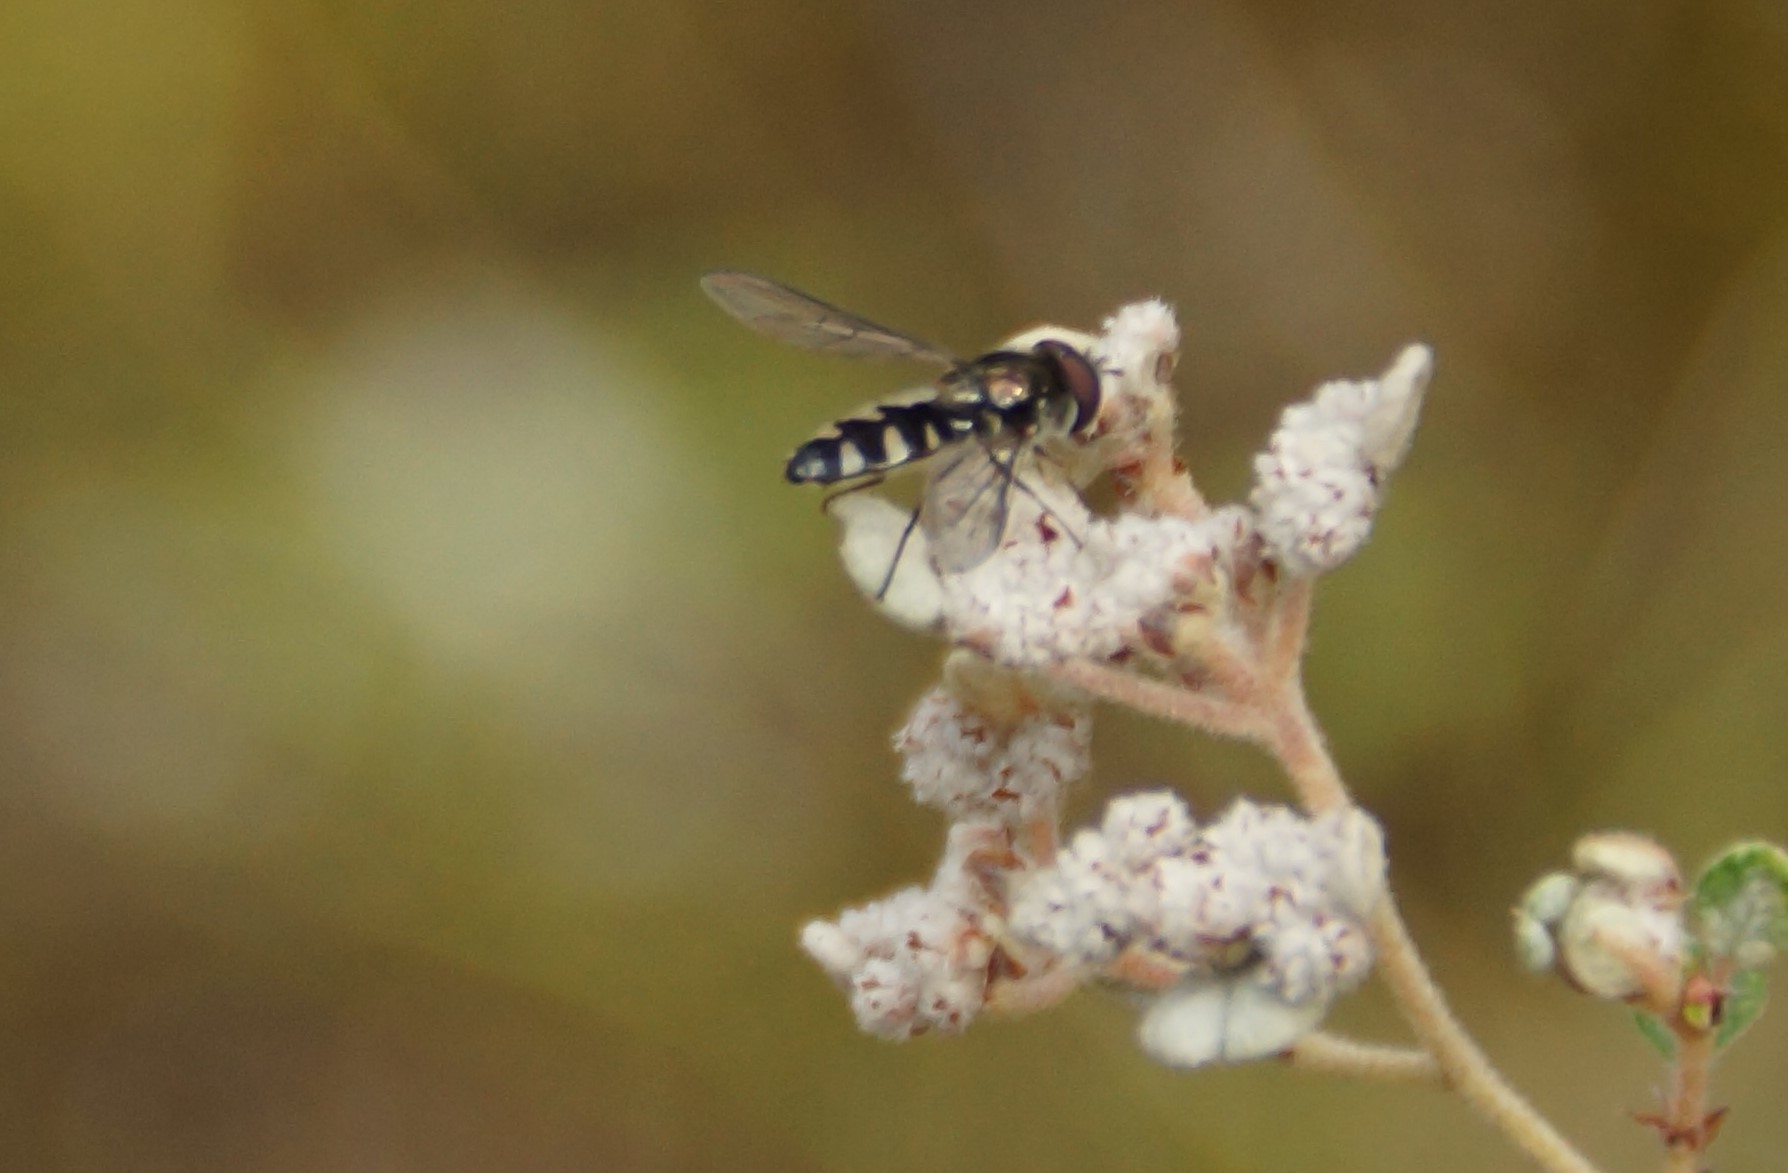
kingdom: Animalia
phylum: Arthropoda
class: Insecta
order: Diptera
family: Syrphidae
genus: Melangyna
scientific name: Melangyna viridiceps
